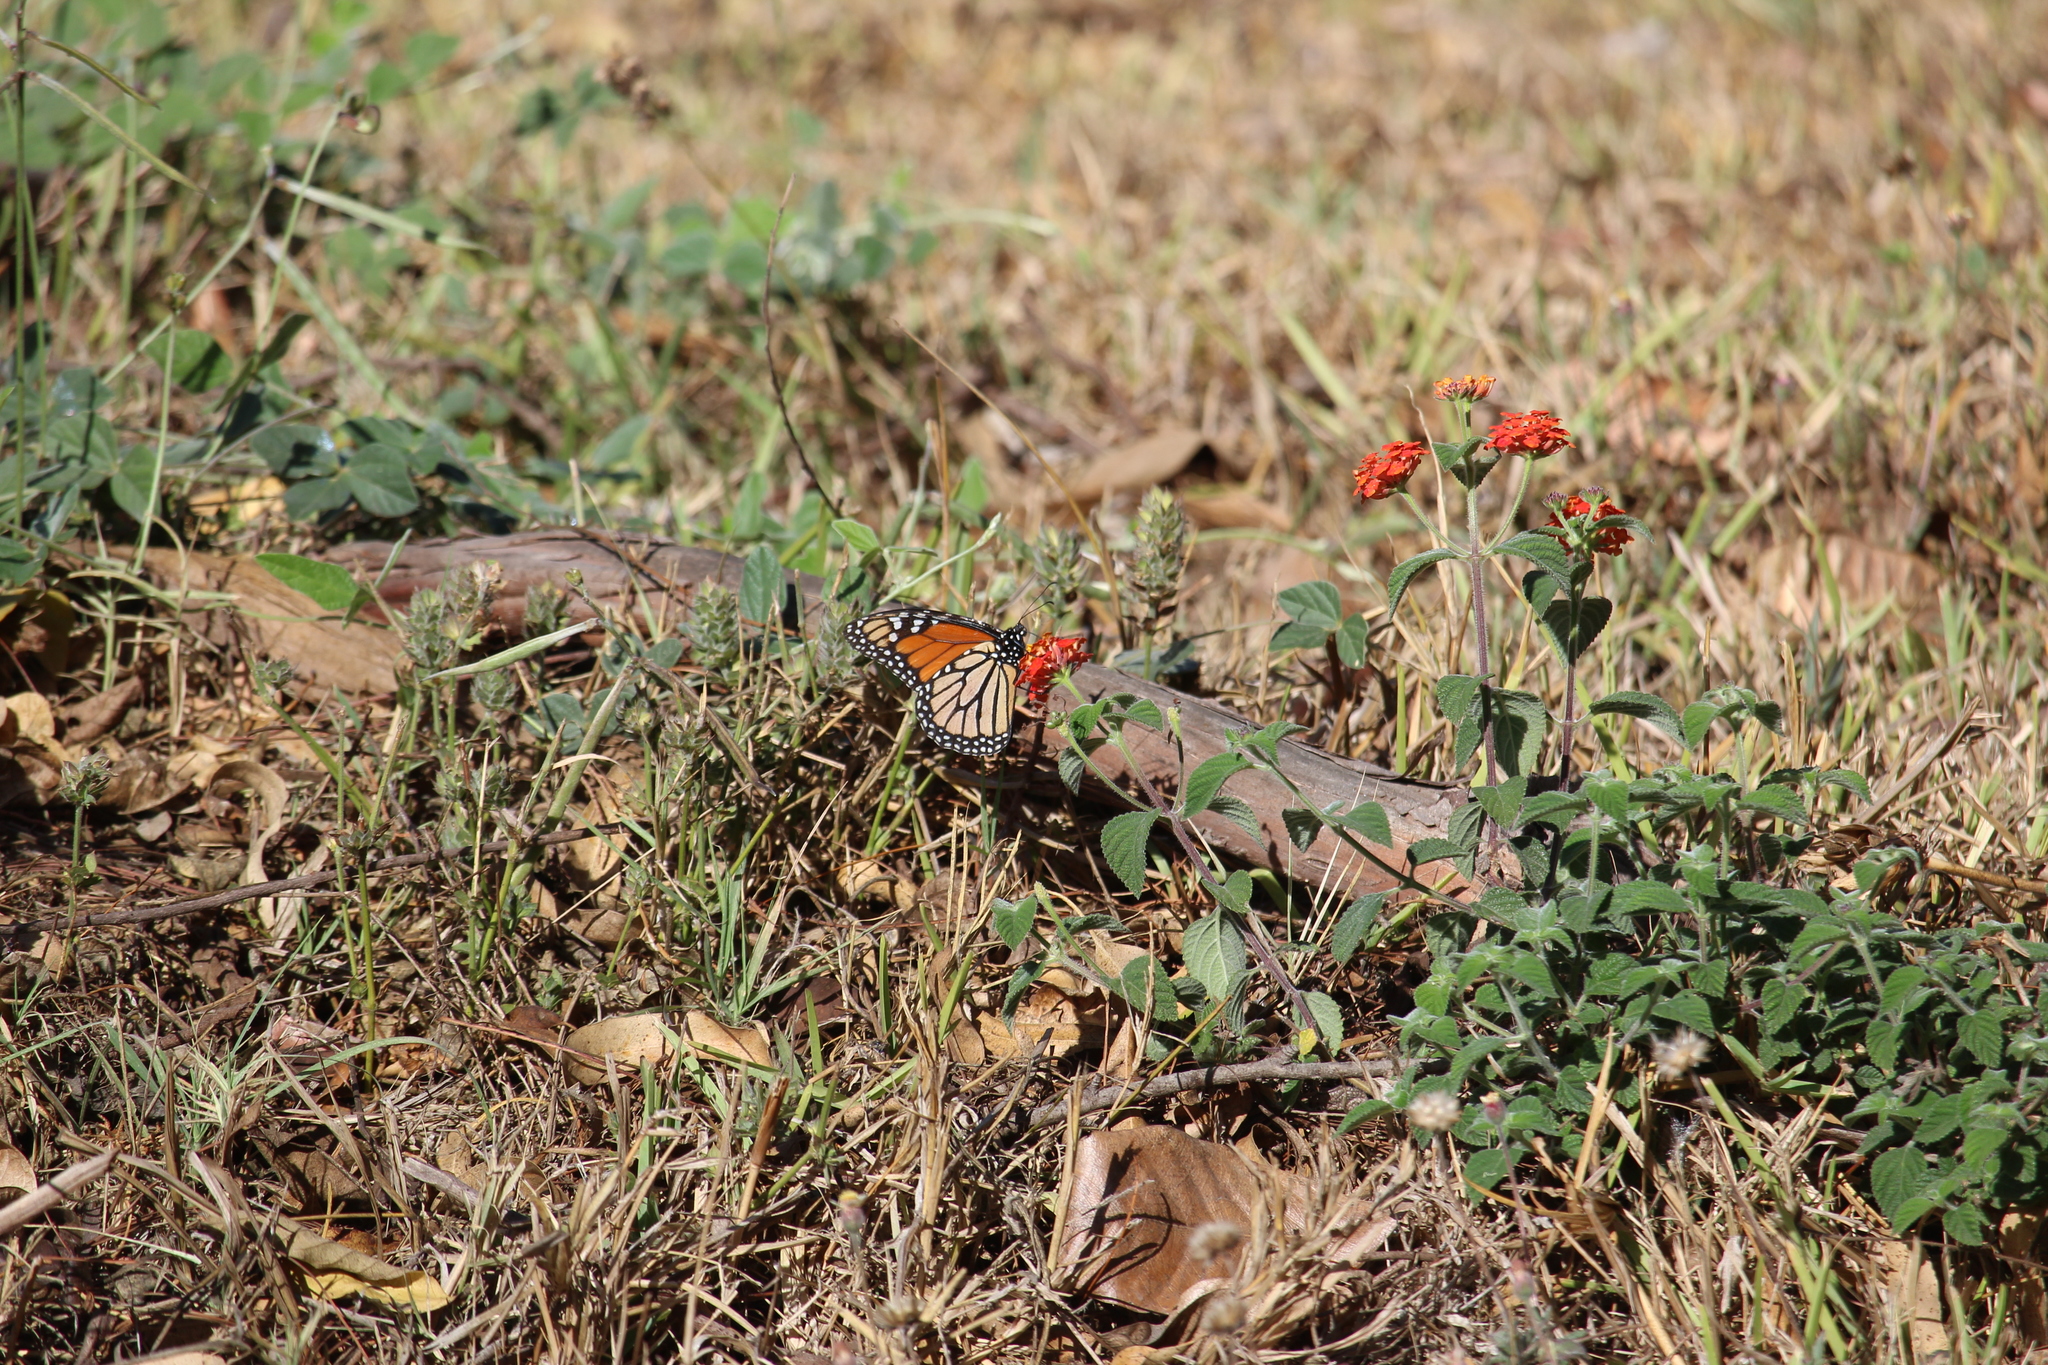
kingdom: Animalia
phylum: Arthropoda
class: Insecta
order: Lepidoptera
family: Nymphalidae
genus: Danaus
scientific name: Danaus plexippus
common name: Monarch
